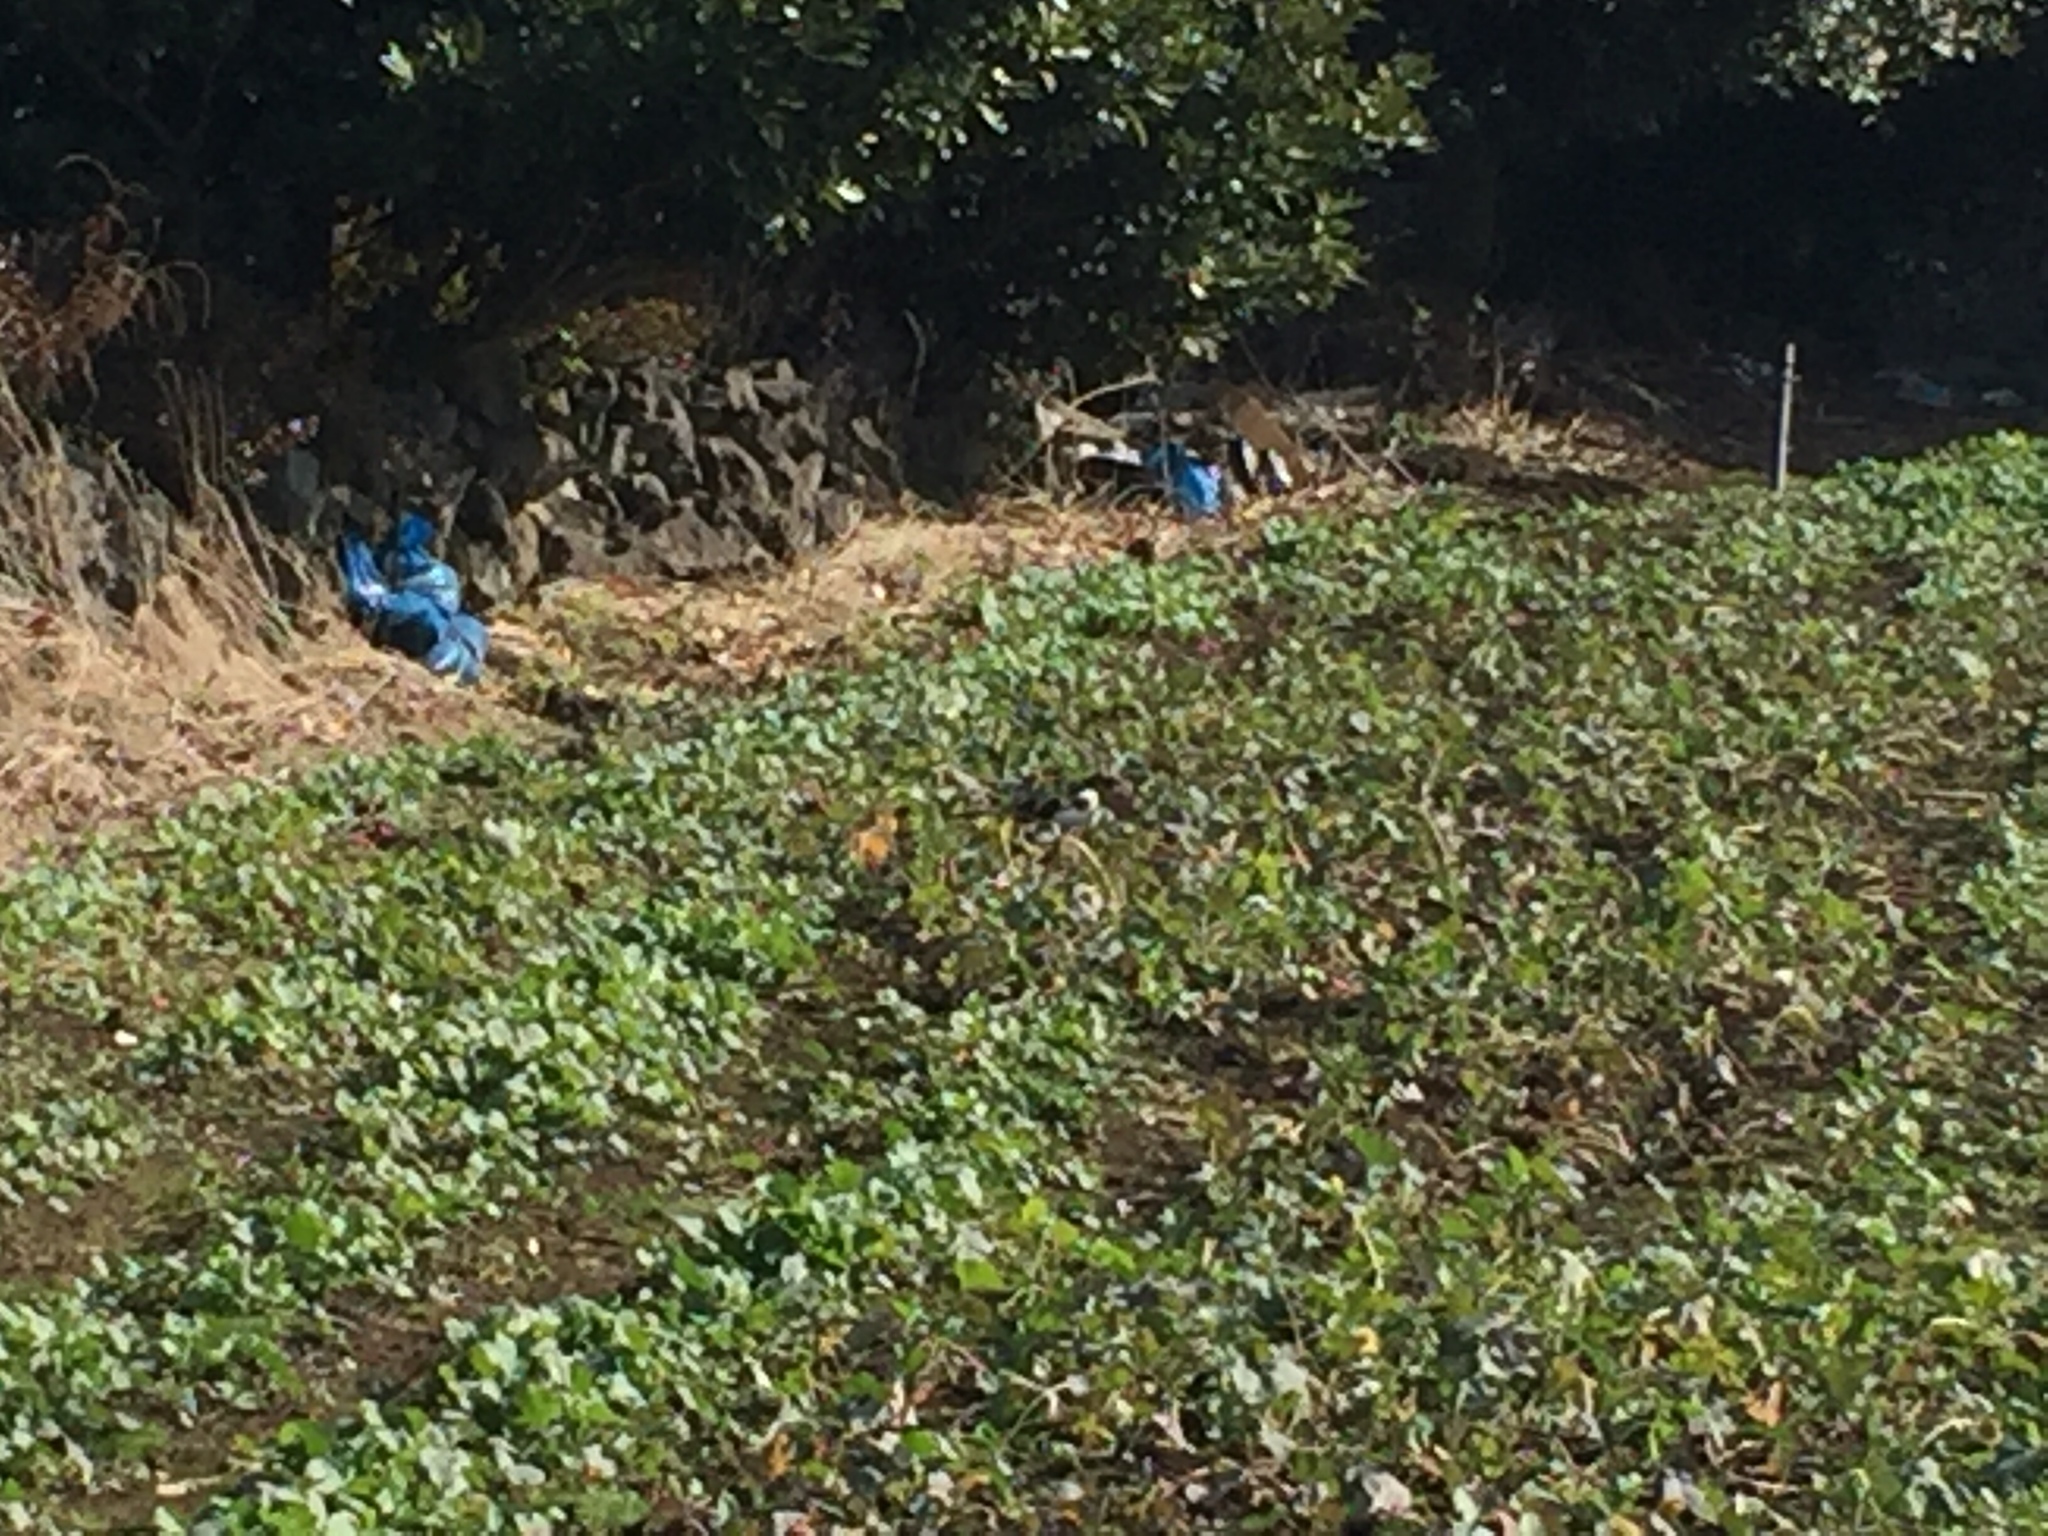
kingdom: Animalia
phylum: Chordata
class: Aves
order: Passeriformes
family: Corvidae
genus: Pica
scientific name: Pica serica
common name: Oriental magpie
